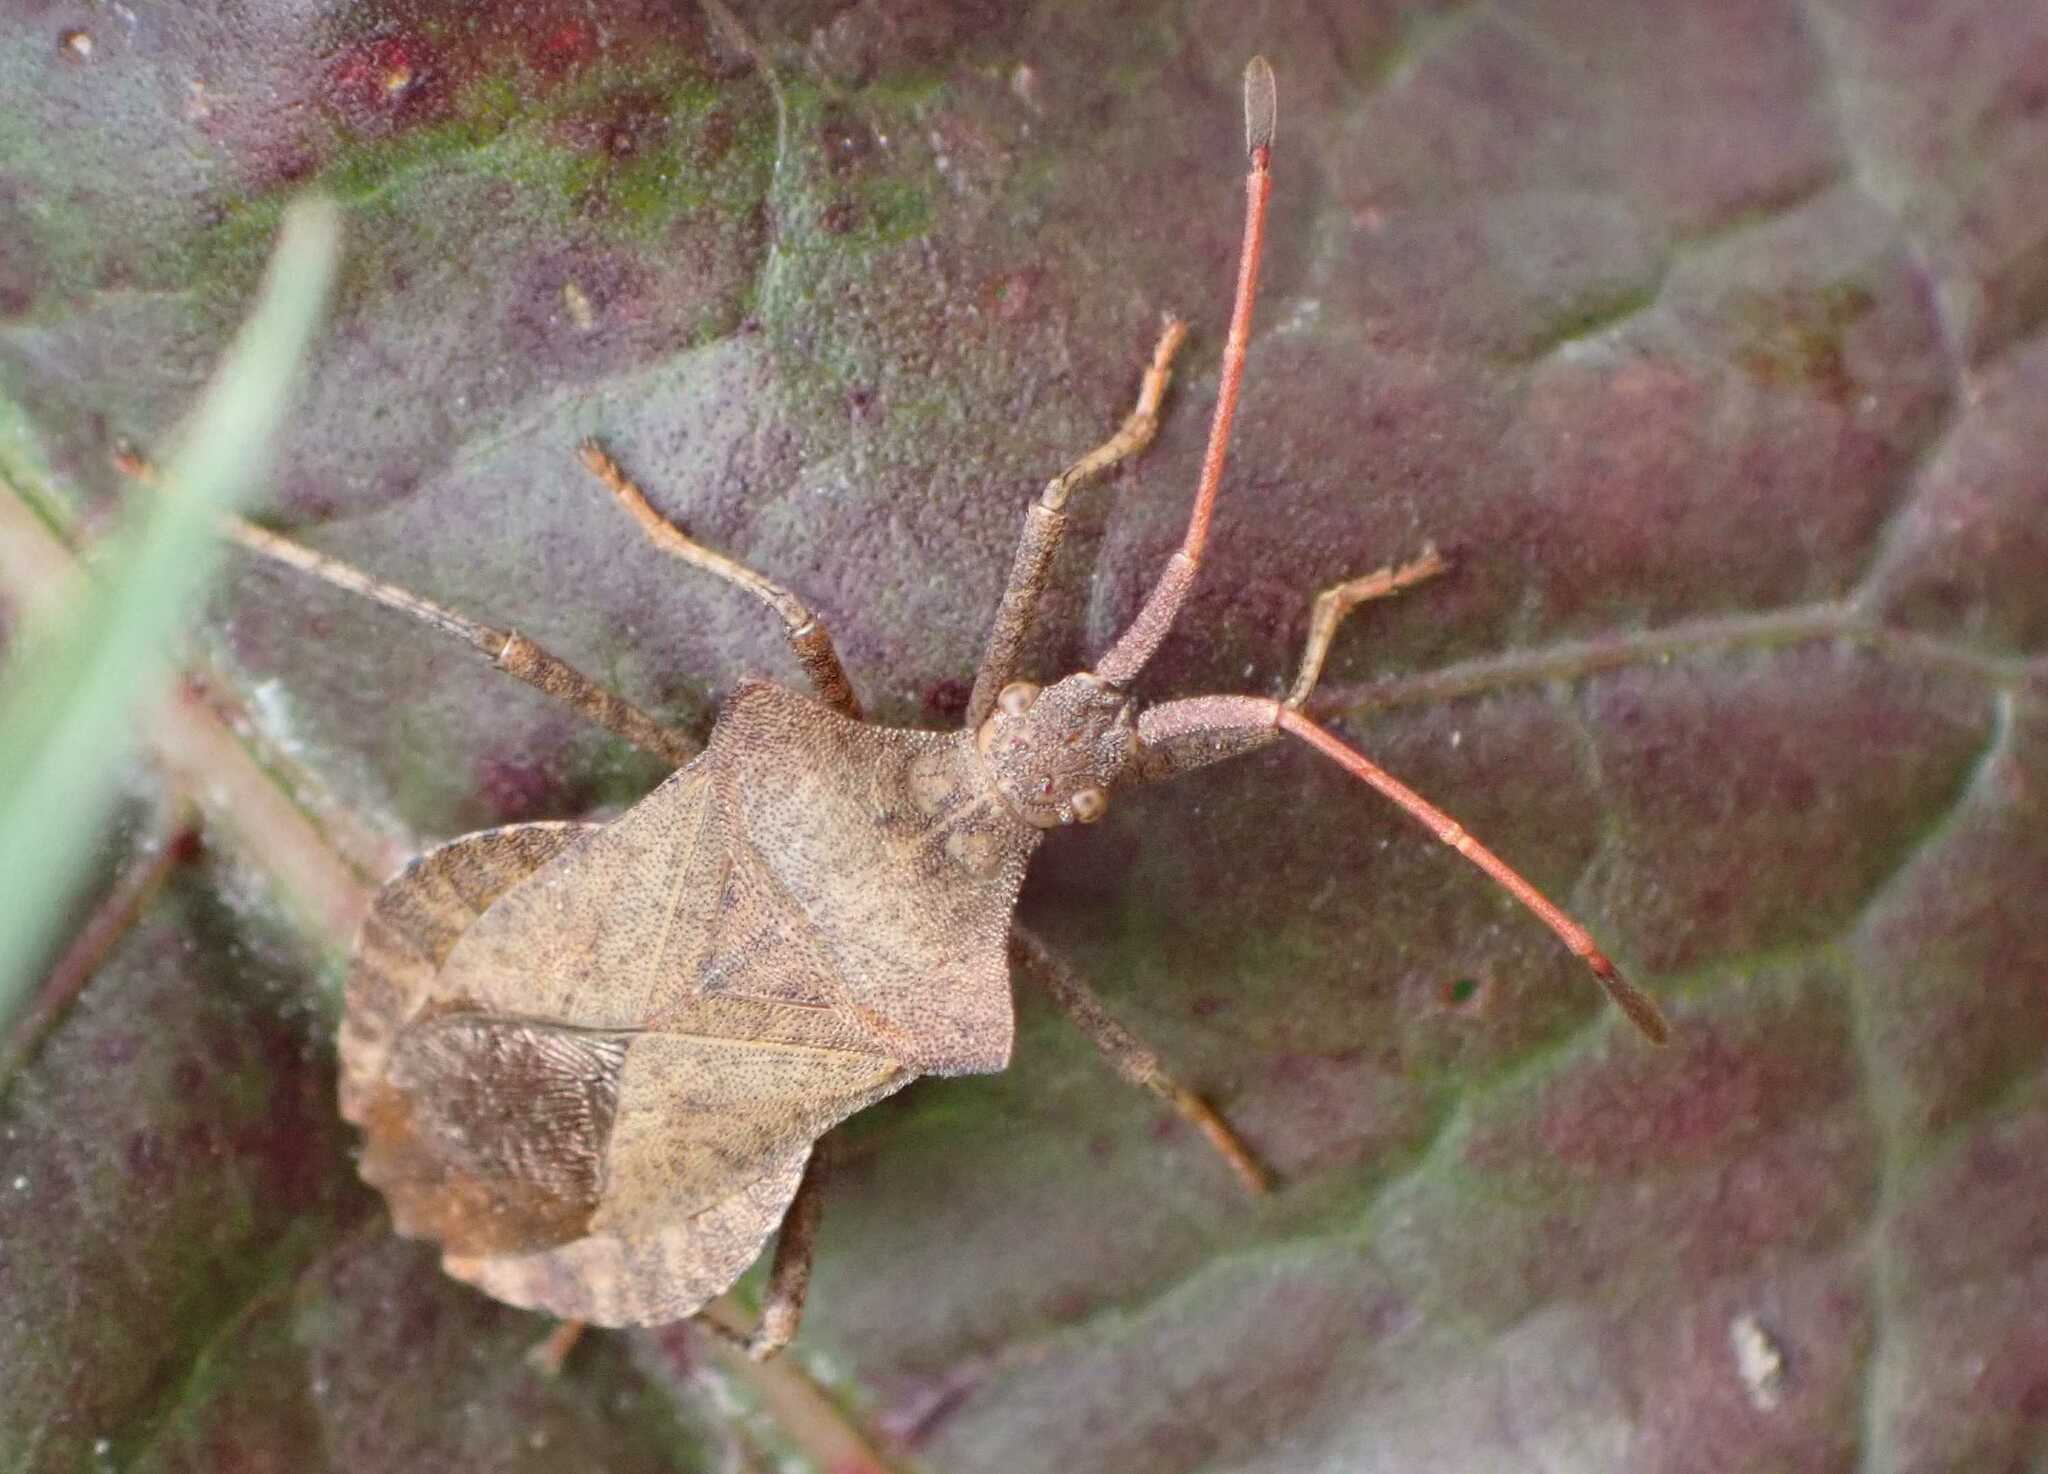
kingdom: Animalia
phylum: Arthropoda
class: Insecta
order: Hemiptera
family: Coreidae
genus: Coreus
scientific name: Coreus marginatus
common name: Dock bug
